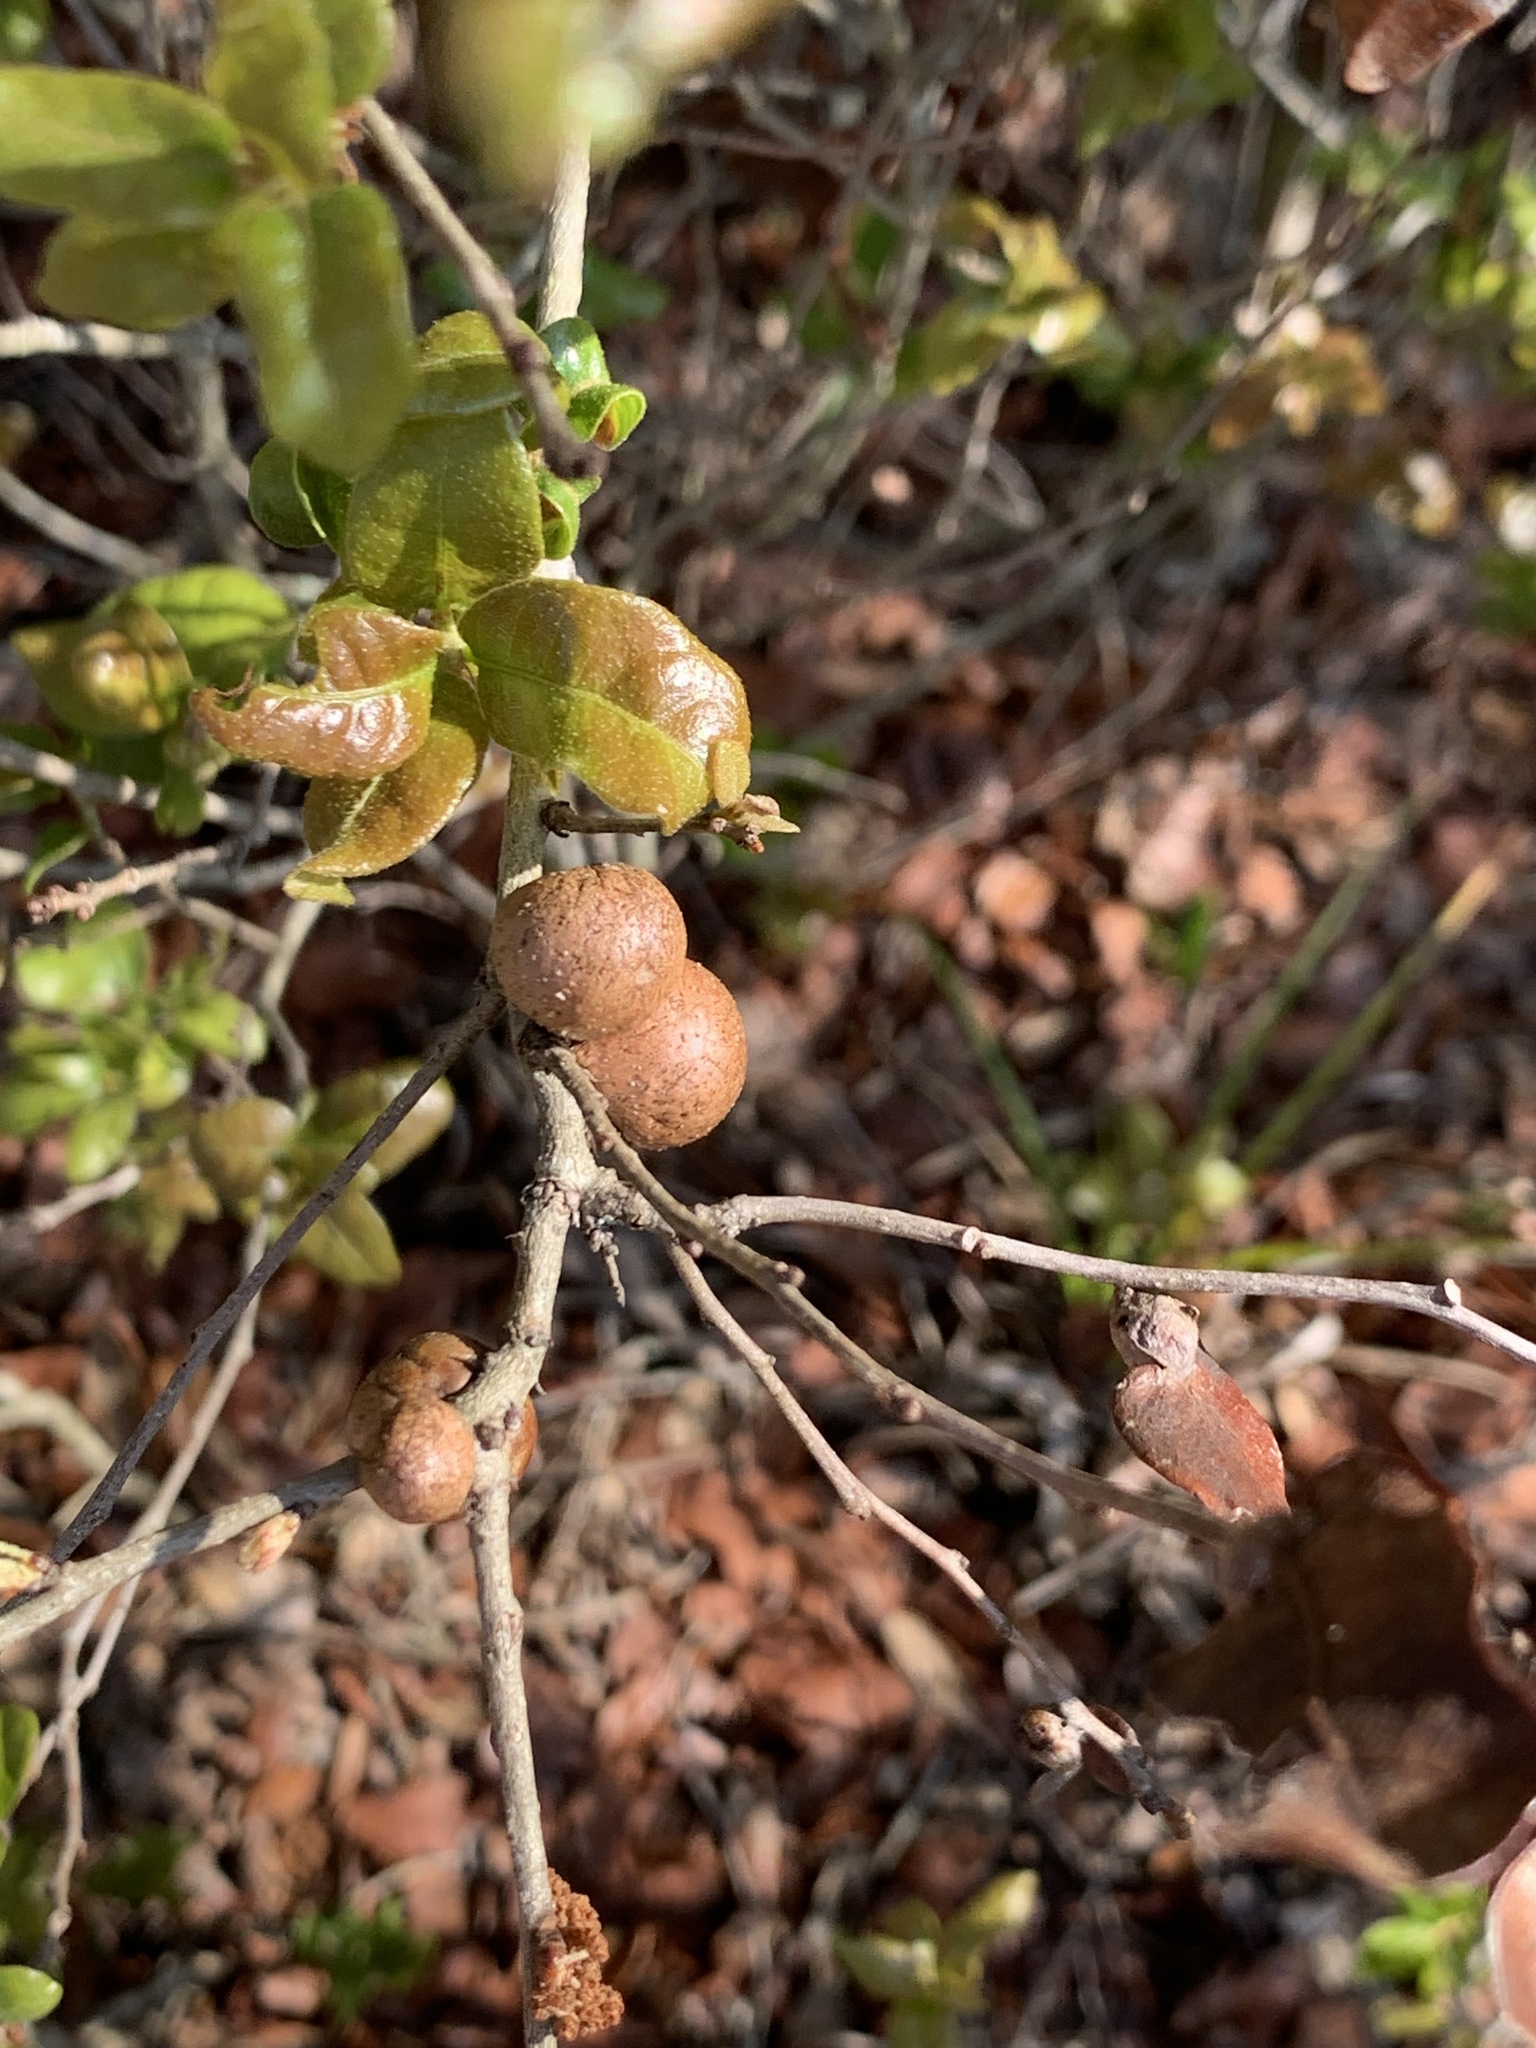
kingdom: Animalia
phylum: Arthropoda
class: Insecta
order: Hymenoptera
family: Cynipidae
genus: Disholcaspis
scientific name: Disholcaspis
